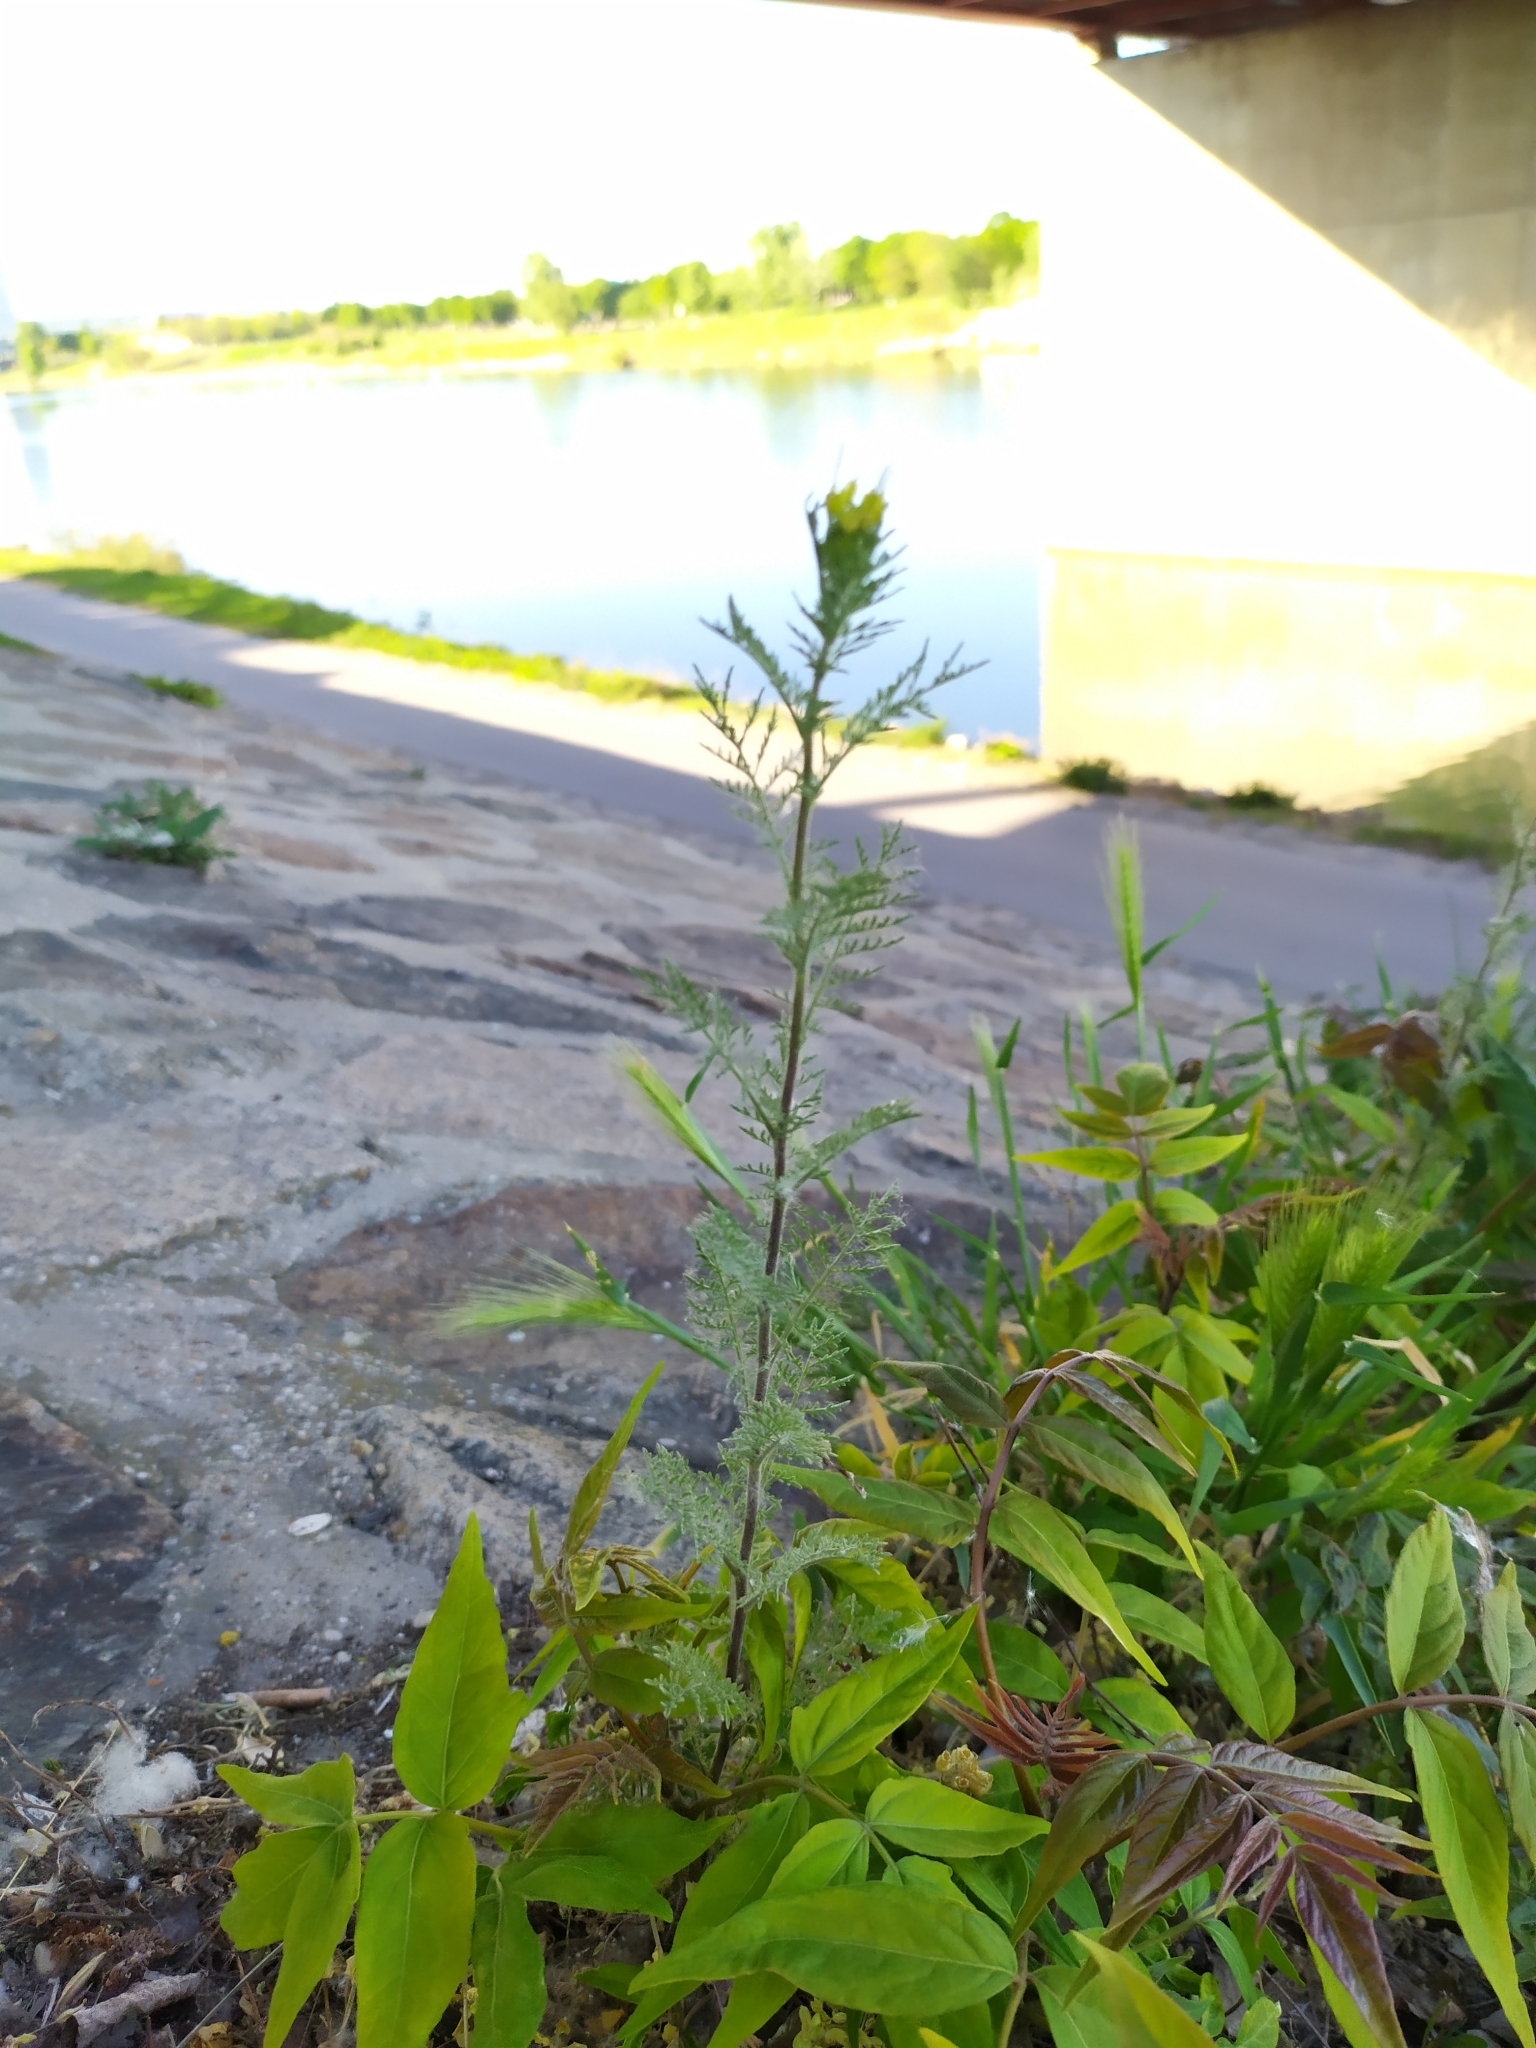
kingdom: Plantae
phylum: Tracheophyta
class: Magnoliopsida
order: Brassicales
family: Brassicaceae
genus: Descurainia
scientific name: Descurainia sophia
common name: Flixweed
